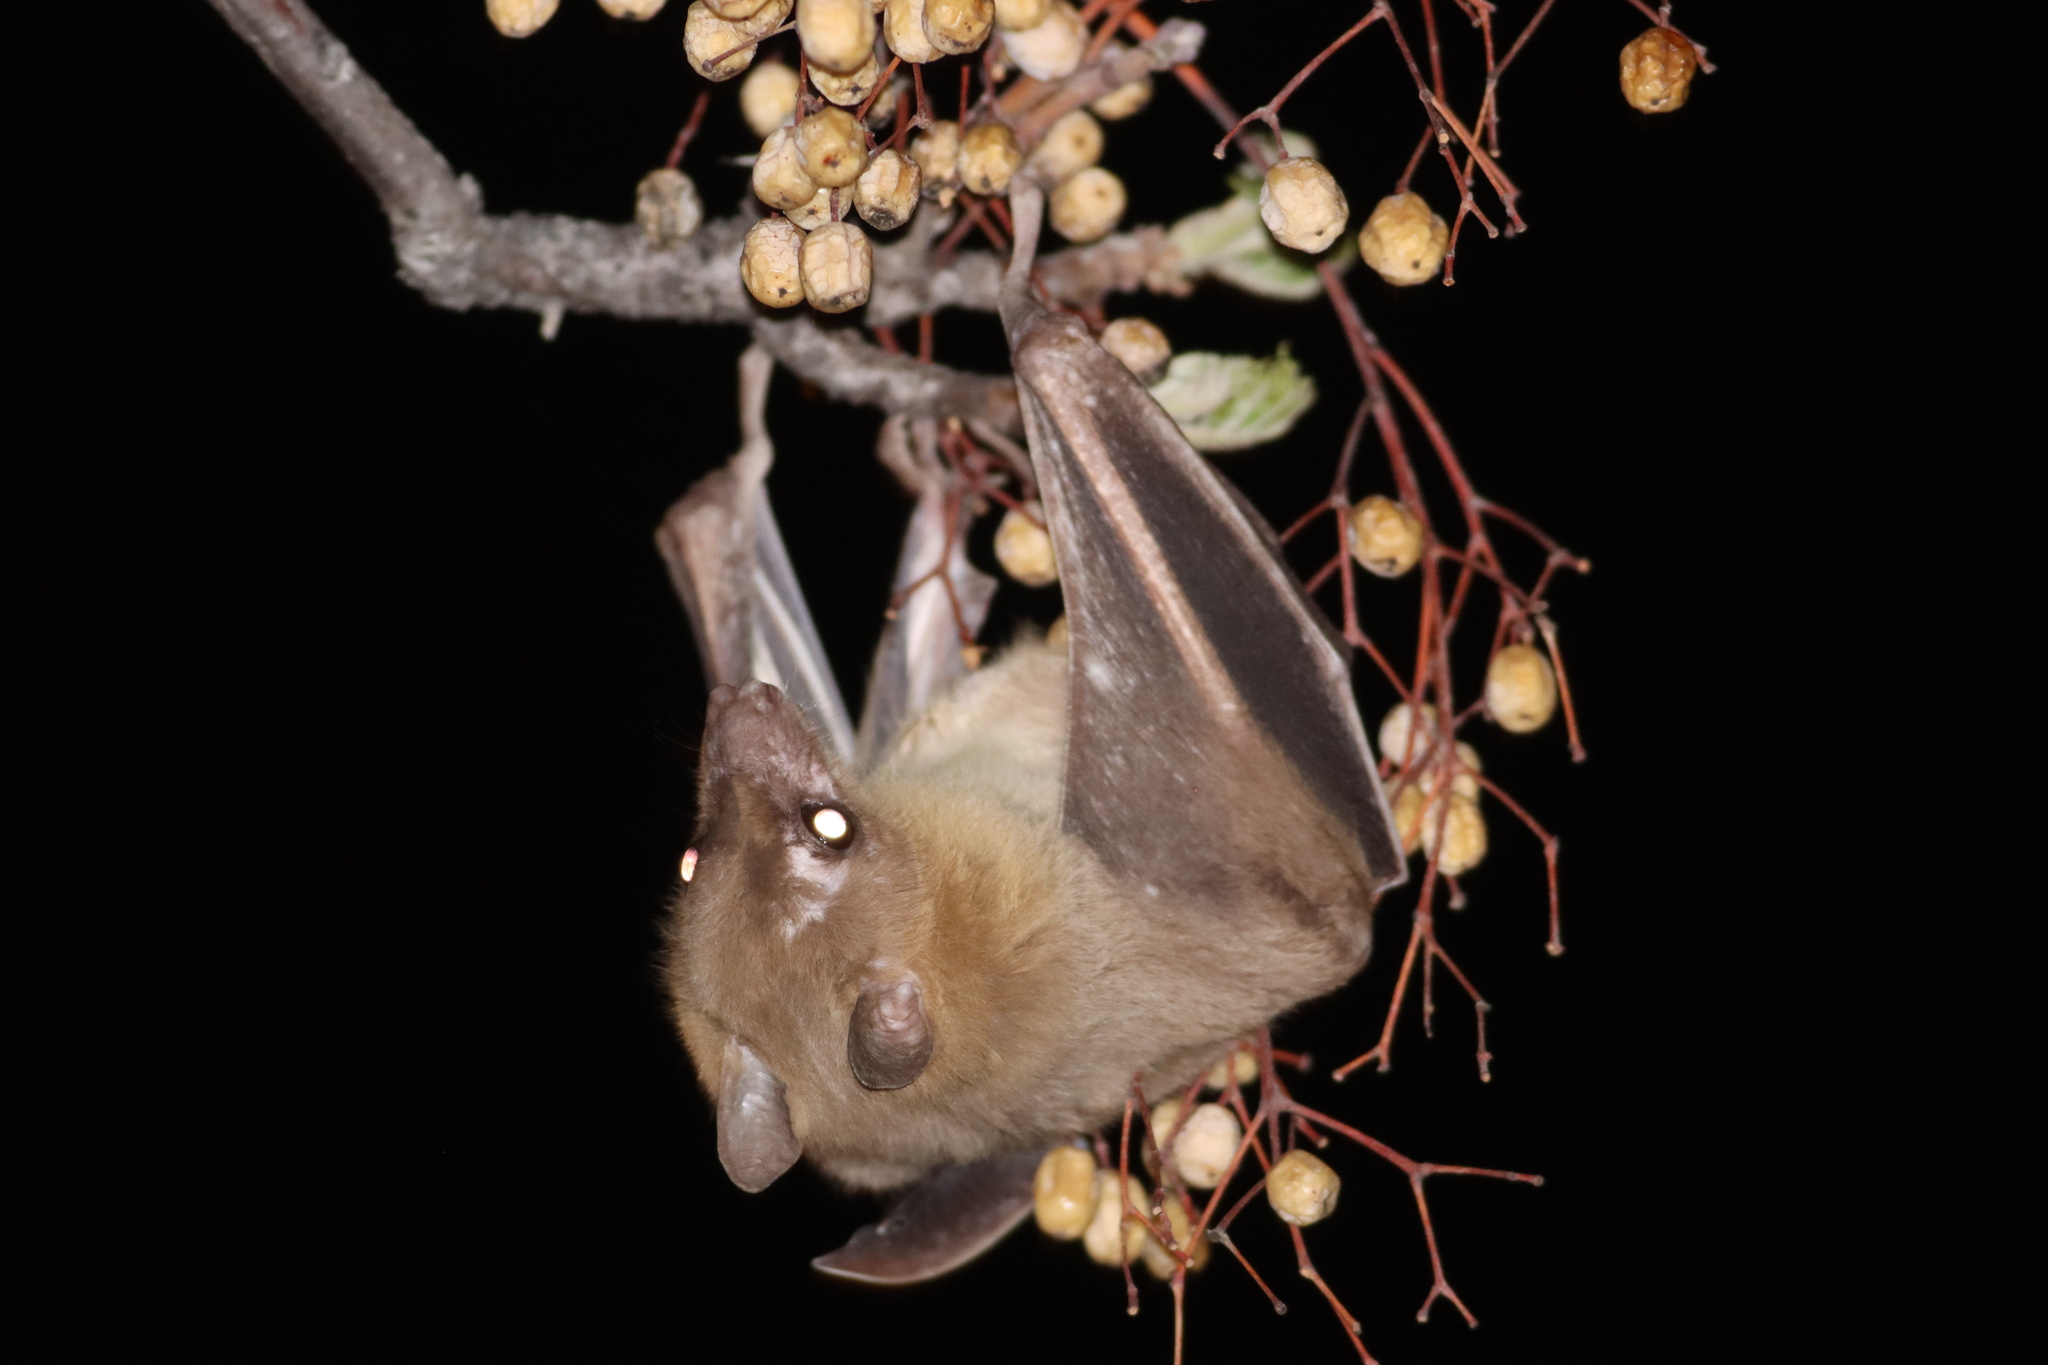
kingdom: Animalia
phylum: Chordata
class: Mammalia
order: Chiroptera
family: Pteropodidae
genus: Rousettus
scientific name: Rousettus aegyptiacus
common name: Egyptian rousette
